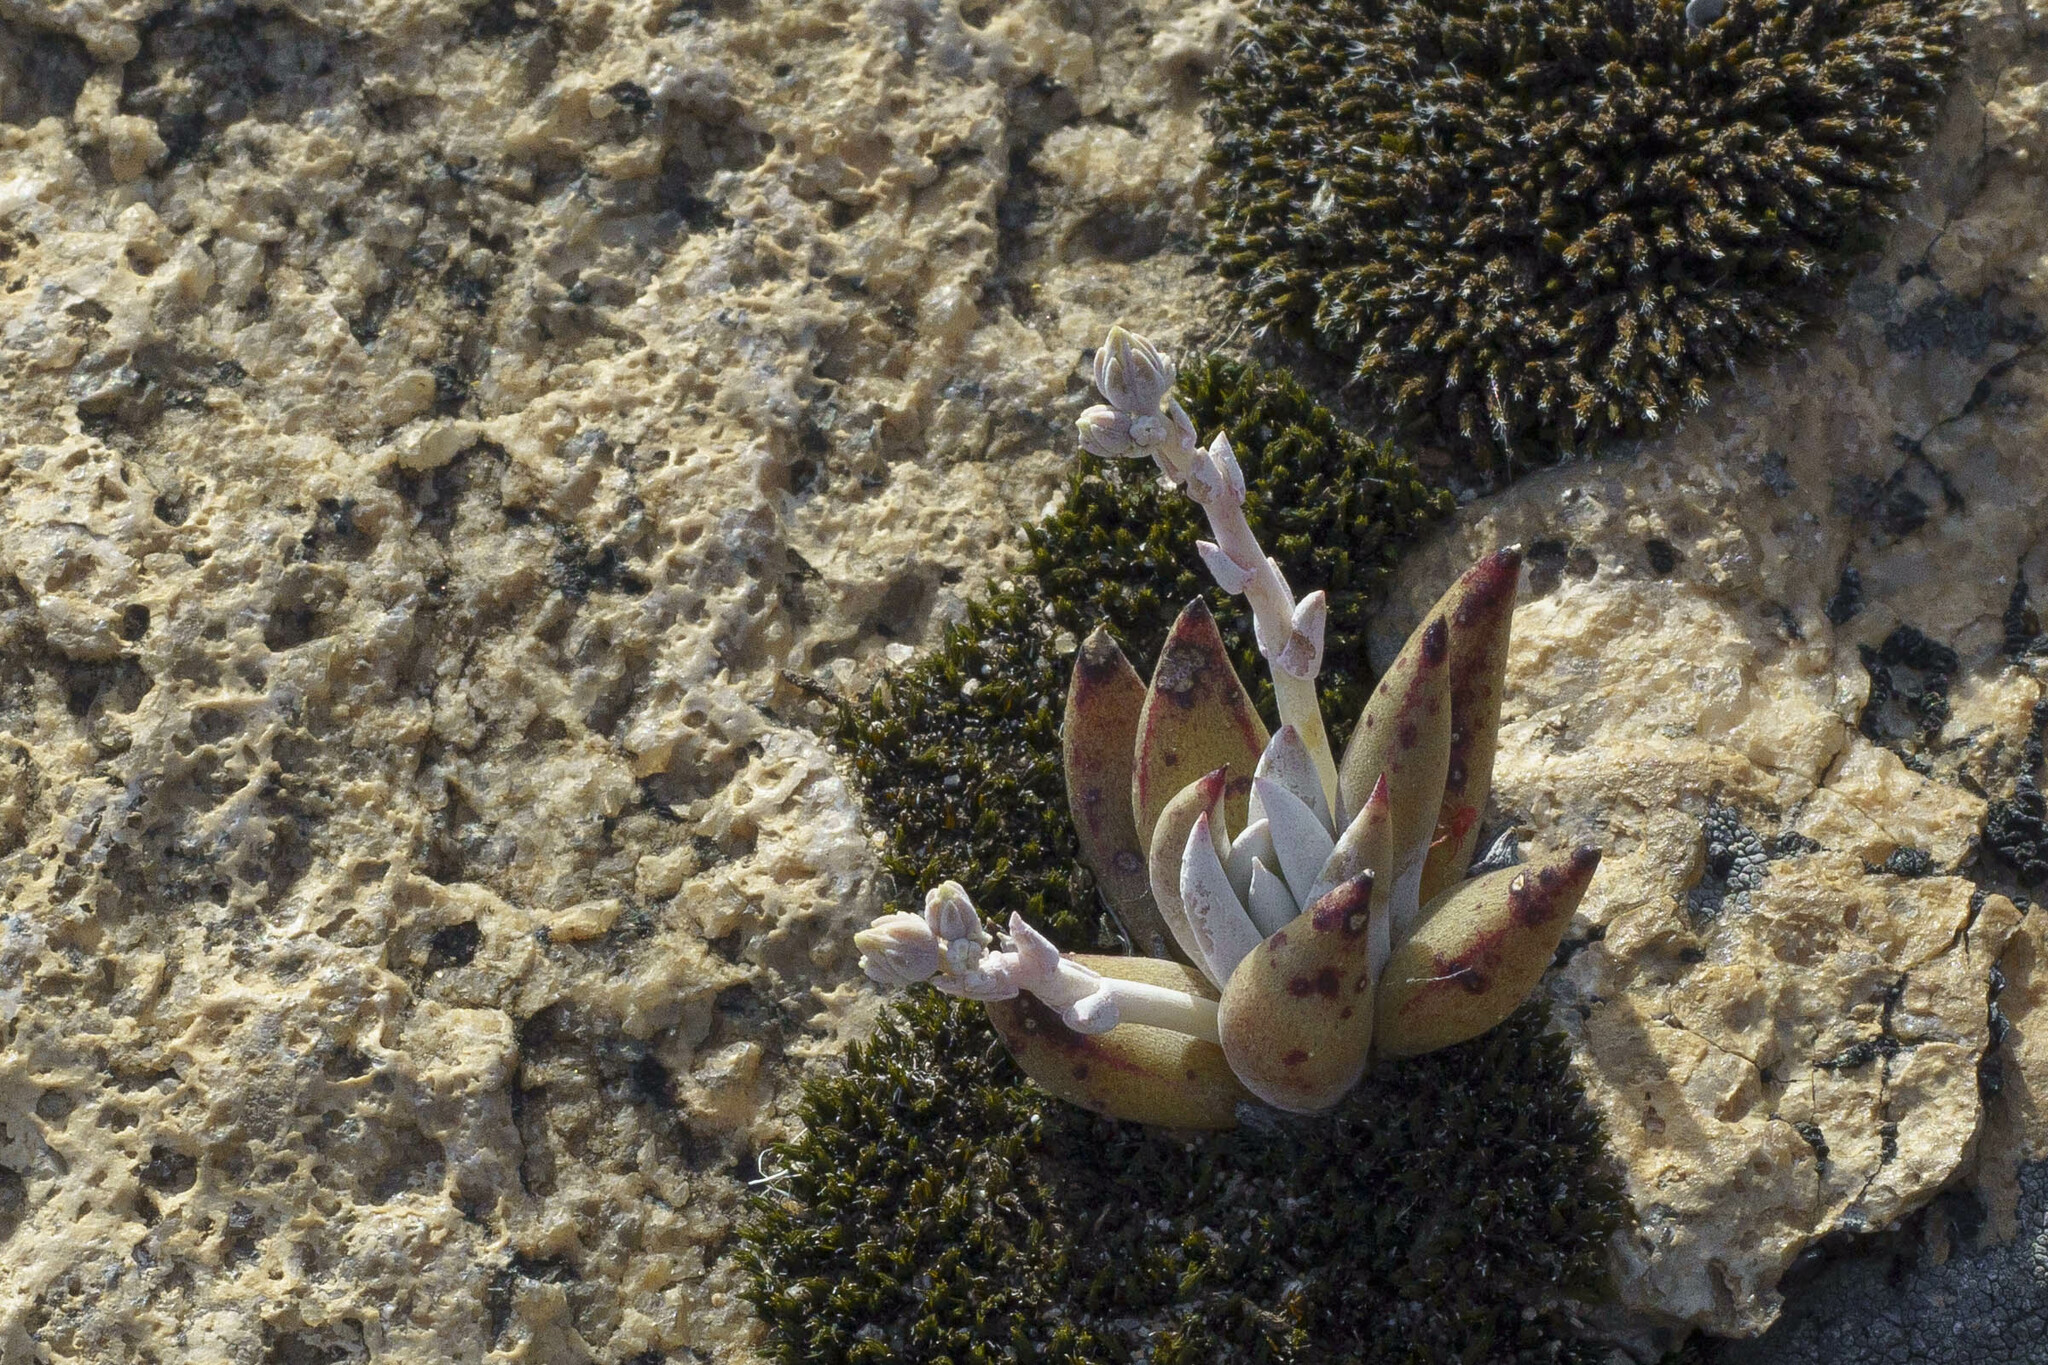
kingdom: Plantae
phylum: Tracheophyta
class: Magnoliopsida
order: Saxifragales
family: Crassulaceae
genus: Dudleya
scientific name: Dudleya abramsii
